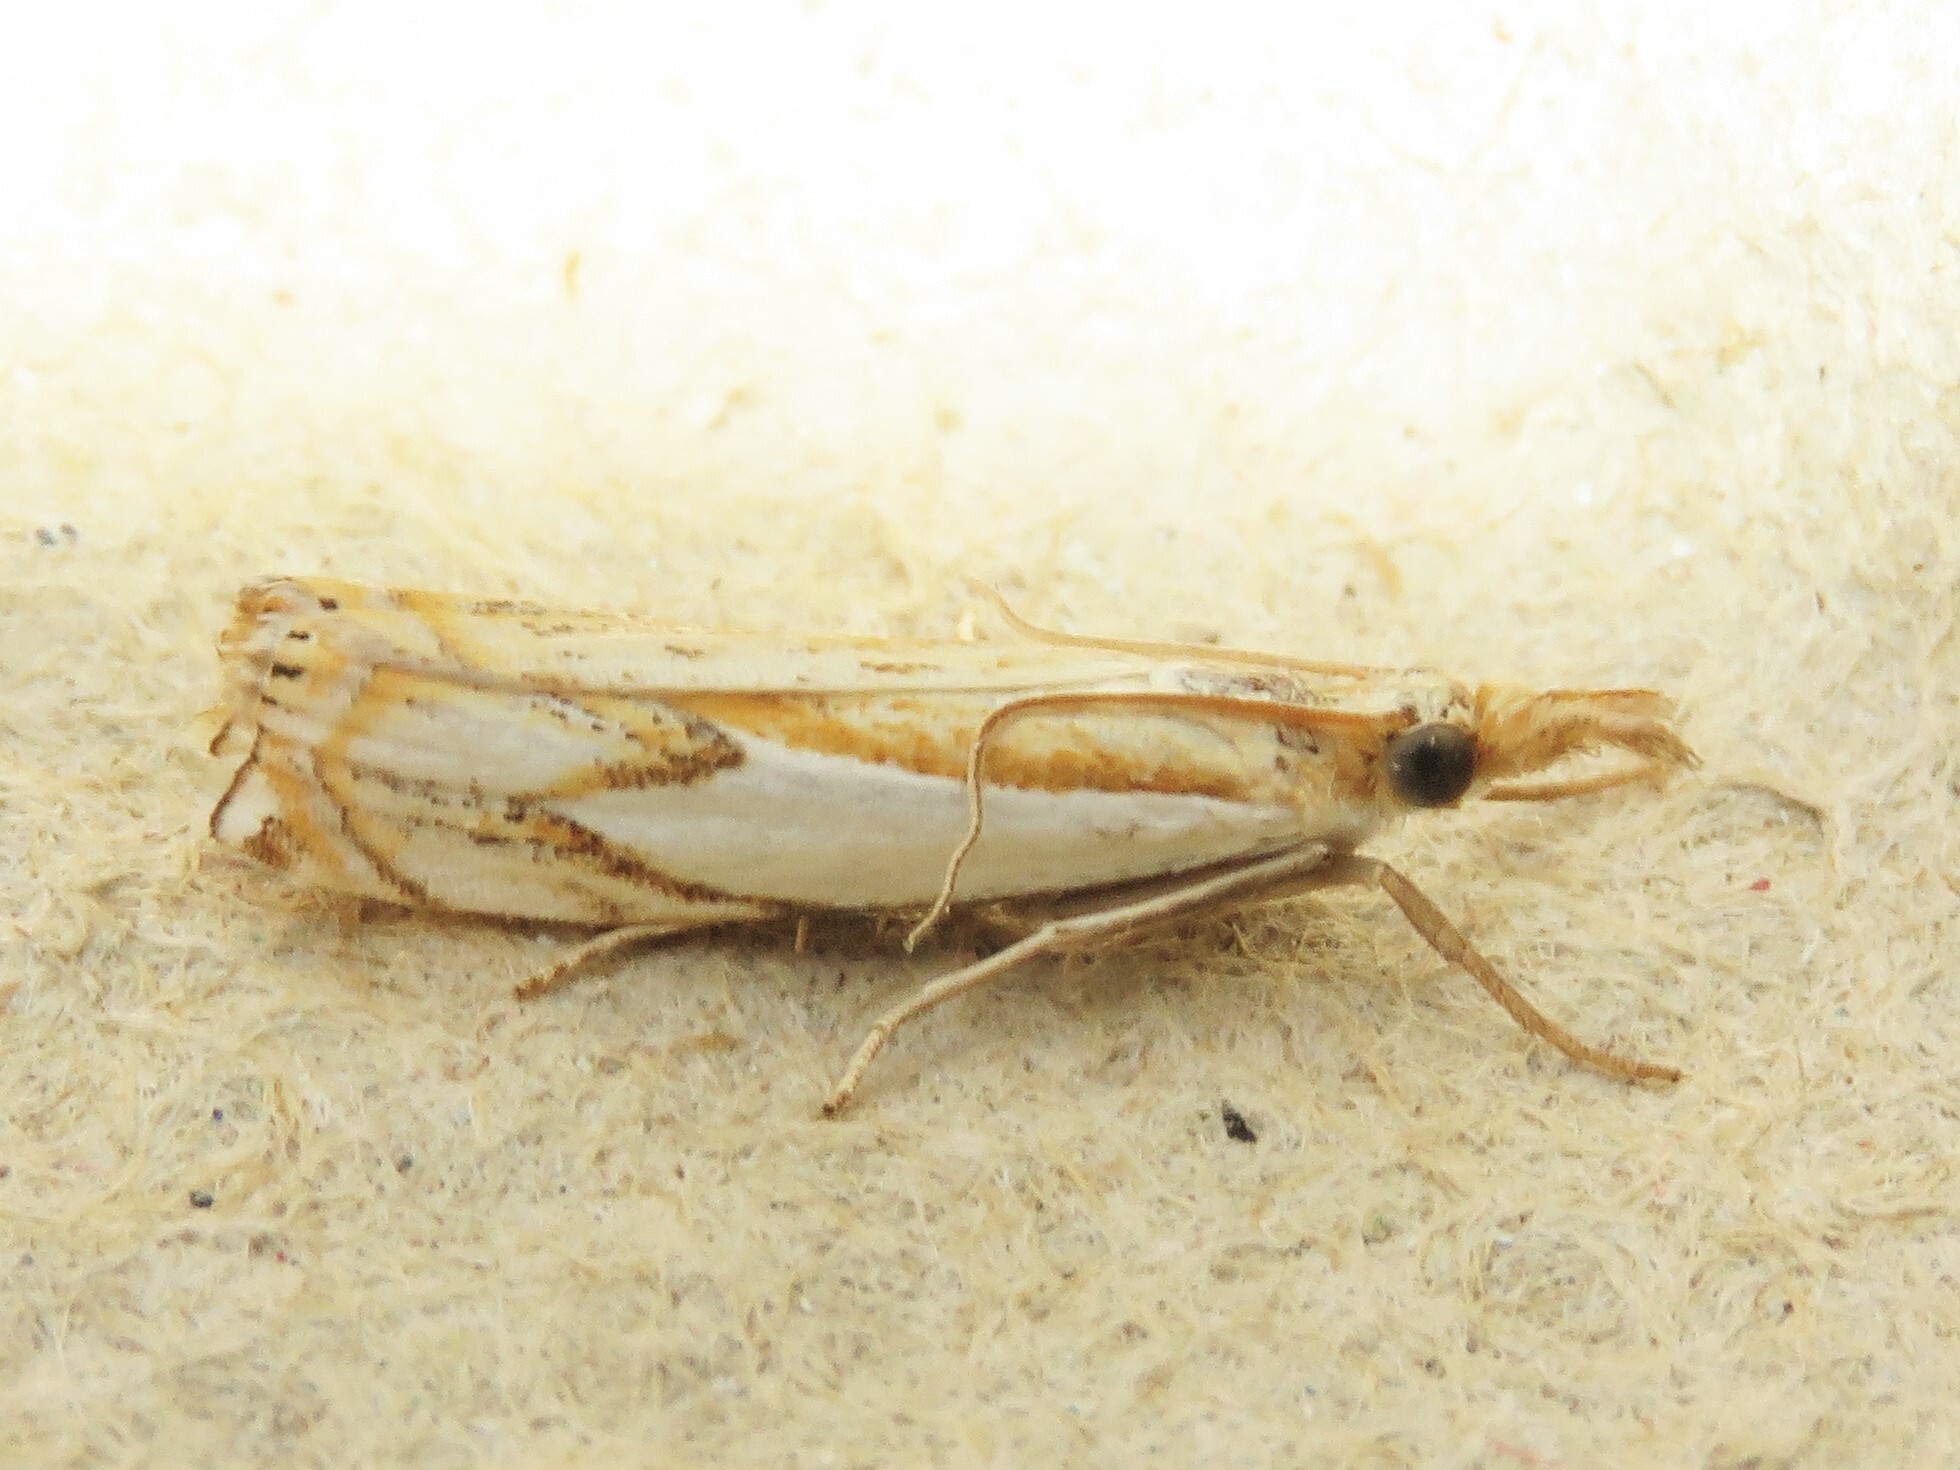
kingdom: Animalia
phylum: Arthropoda
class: Insecta
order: Lepidoptera
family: Crambidae
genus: Crambus
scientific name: Crambus agitatellus
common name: Double-banded grass-veneer
